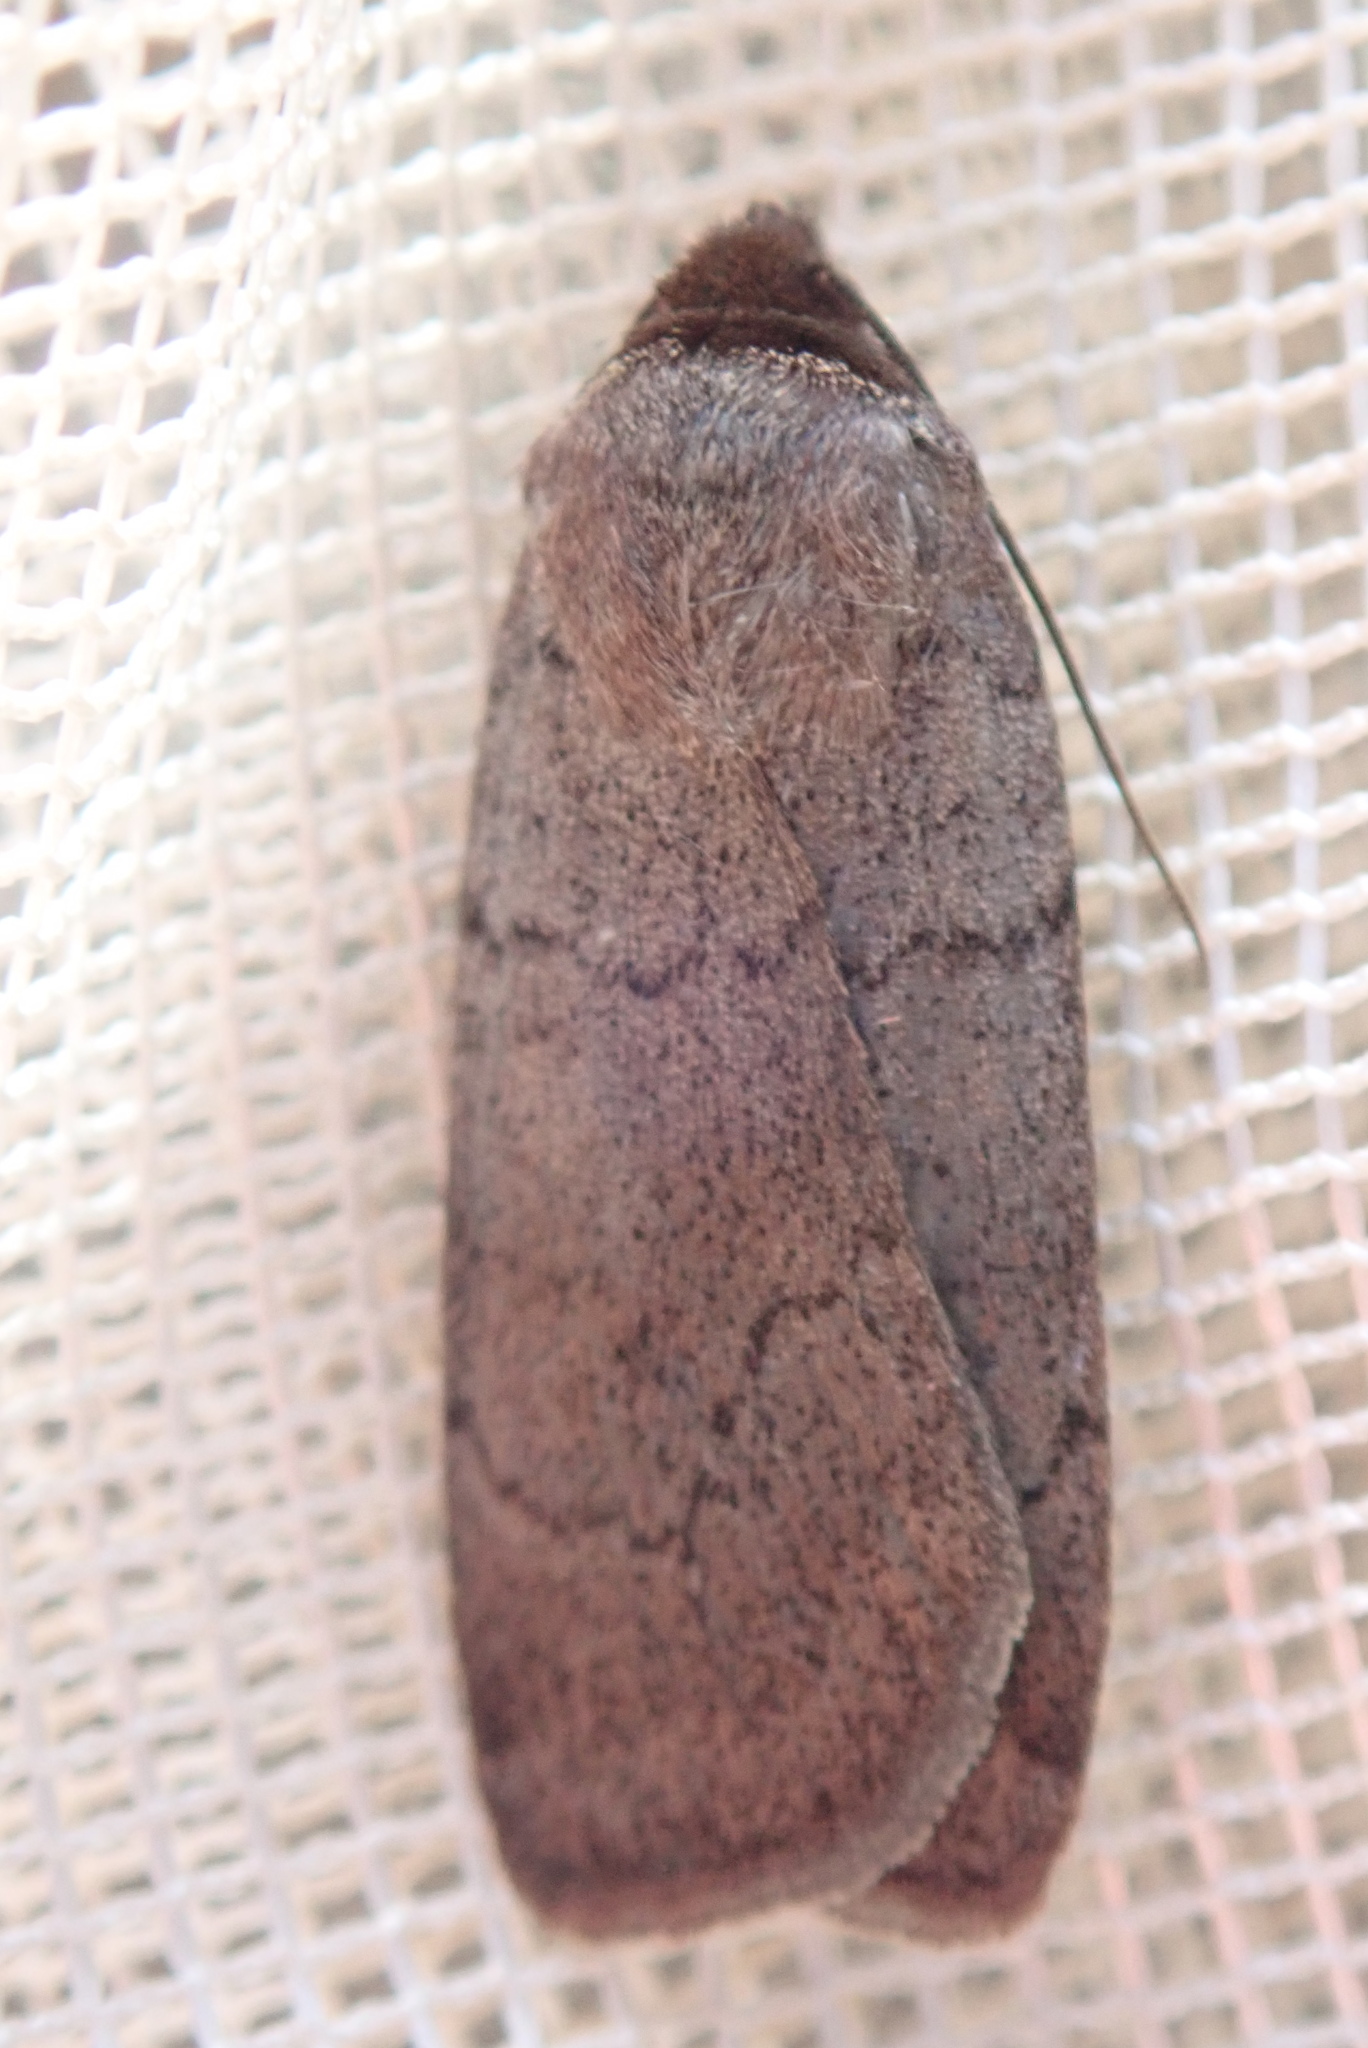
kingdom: Animalia
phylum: Arthropoda
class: Insecta
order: Lepidoptera
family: Noctuidae
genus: Protolampra
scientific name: Protolampra rufipectus
